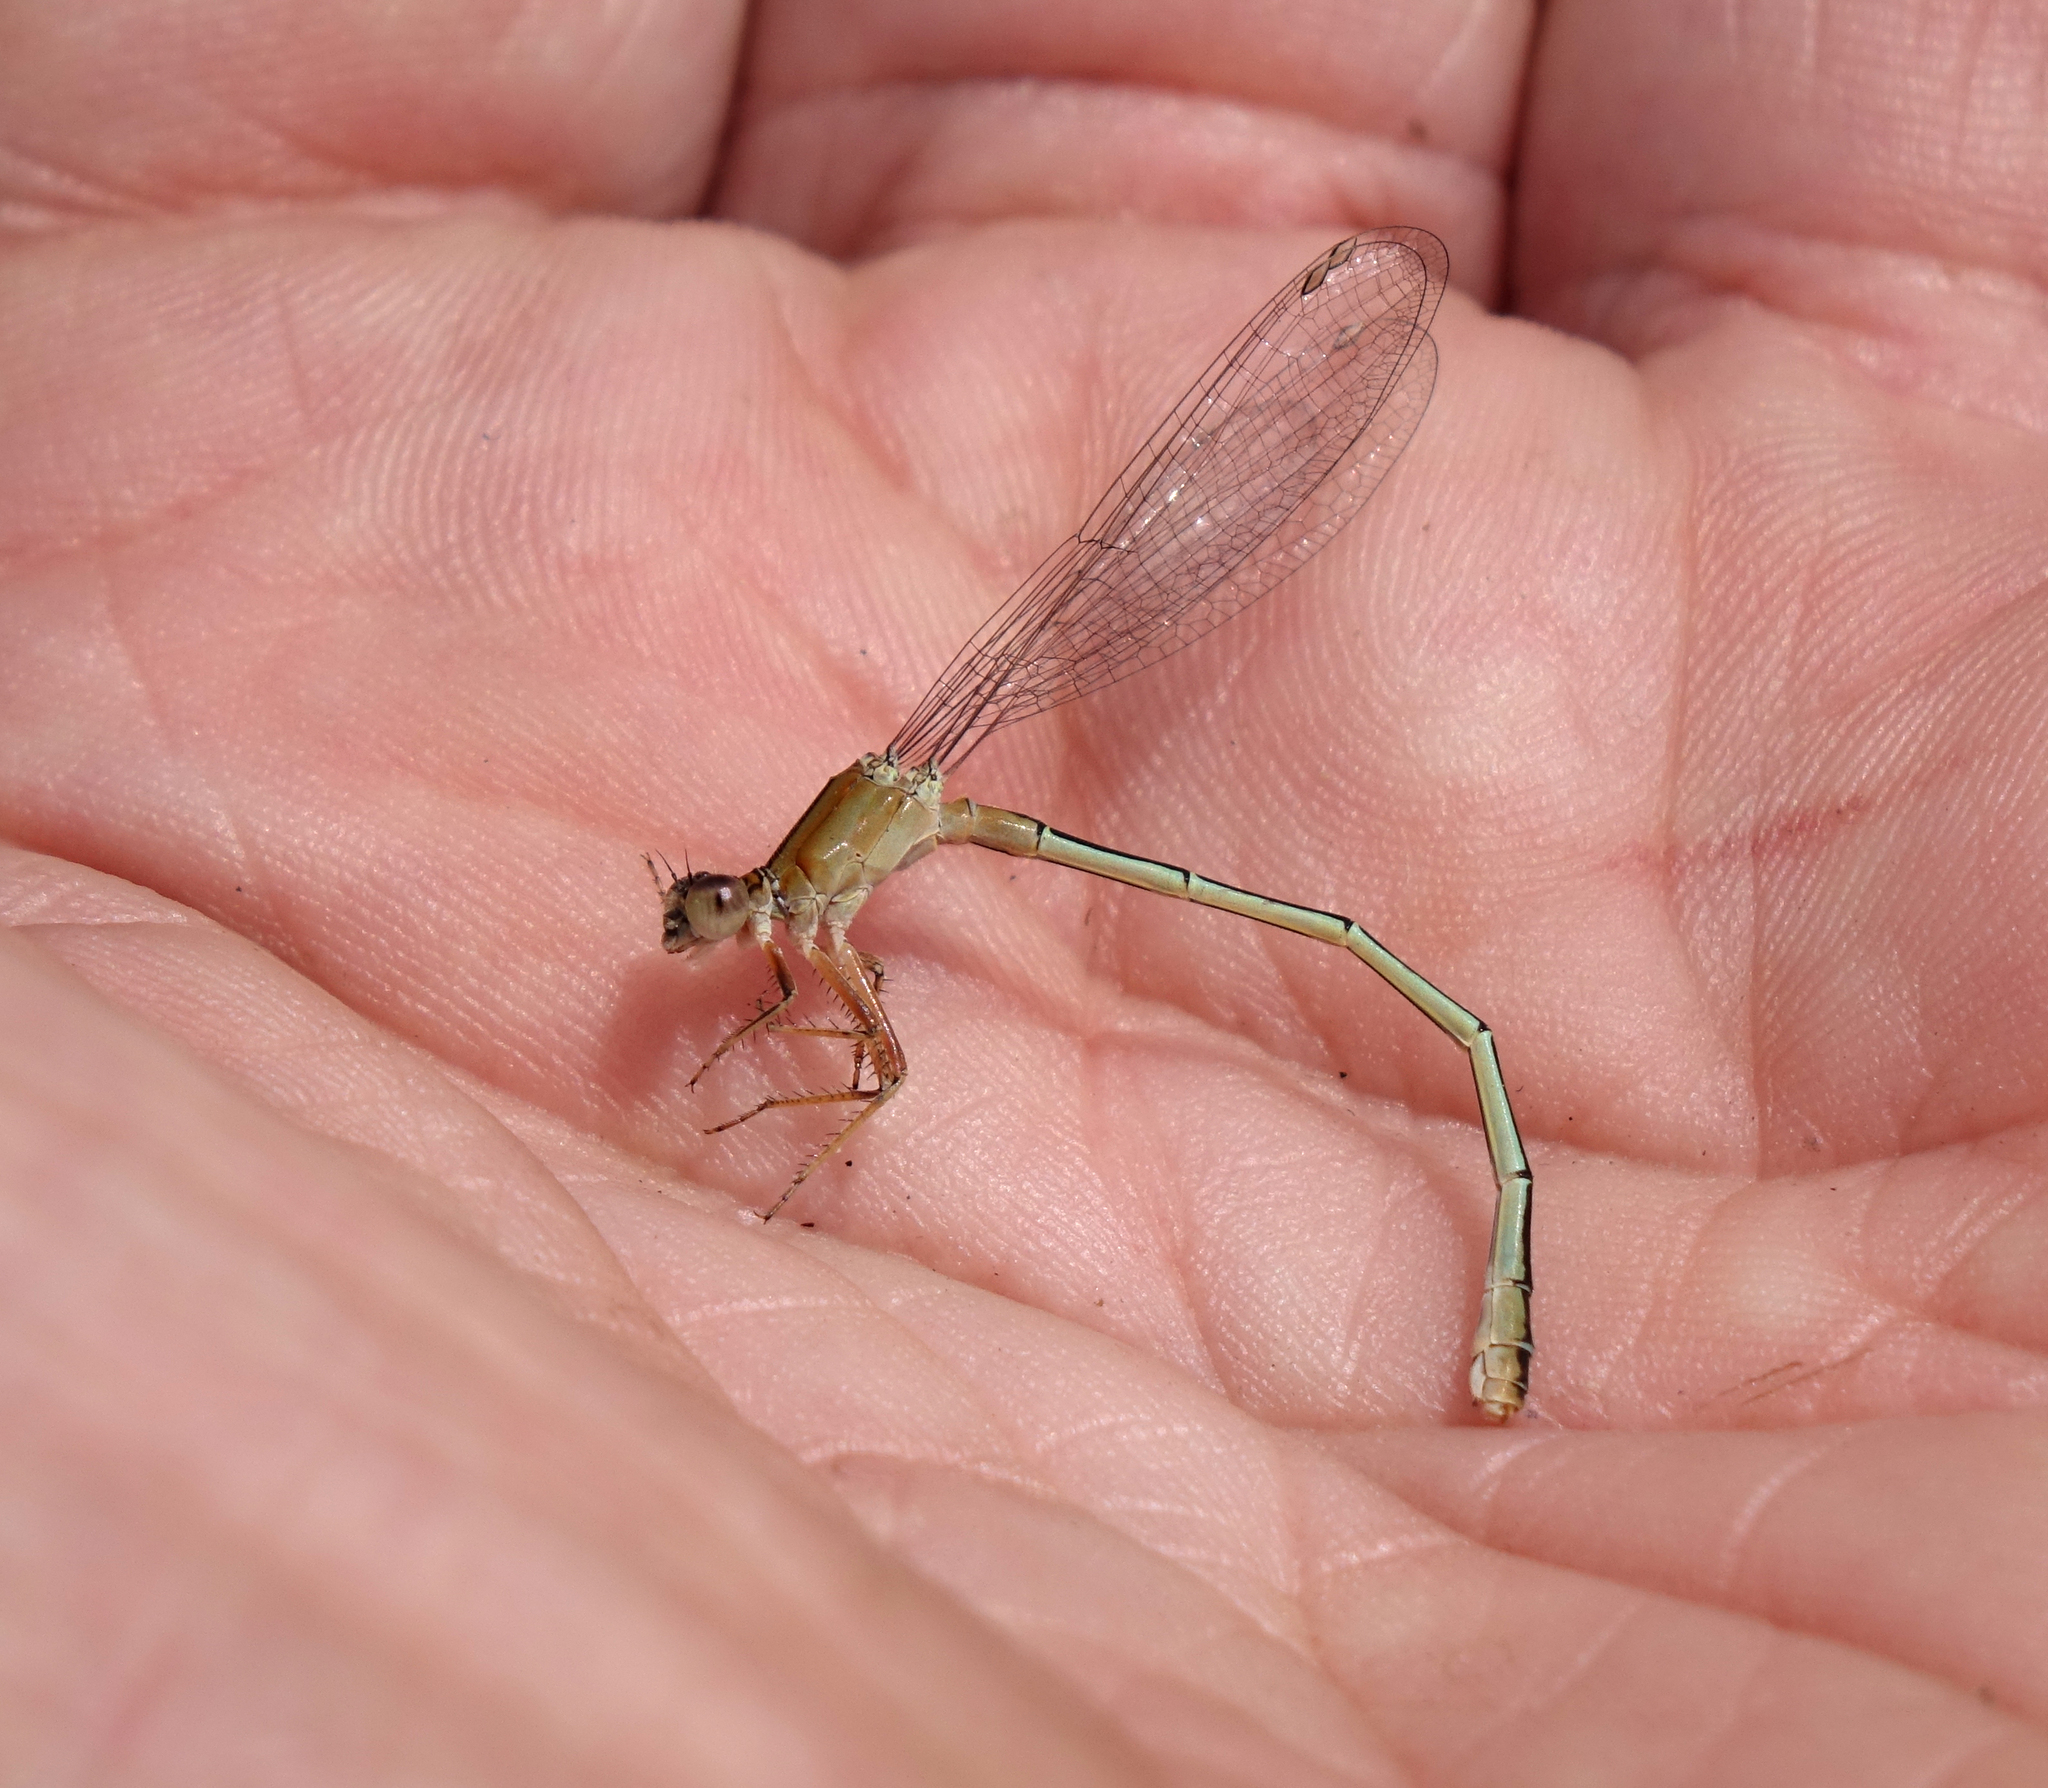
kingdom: Animalia
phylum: Arthropoda
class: Insecta
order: Odonata
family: Coenagrionidae
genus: Ischnura
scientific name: Ischnura fountaineae
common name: Oasis bluetail
